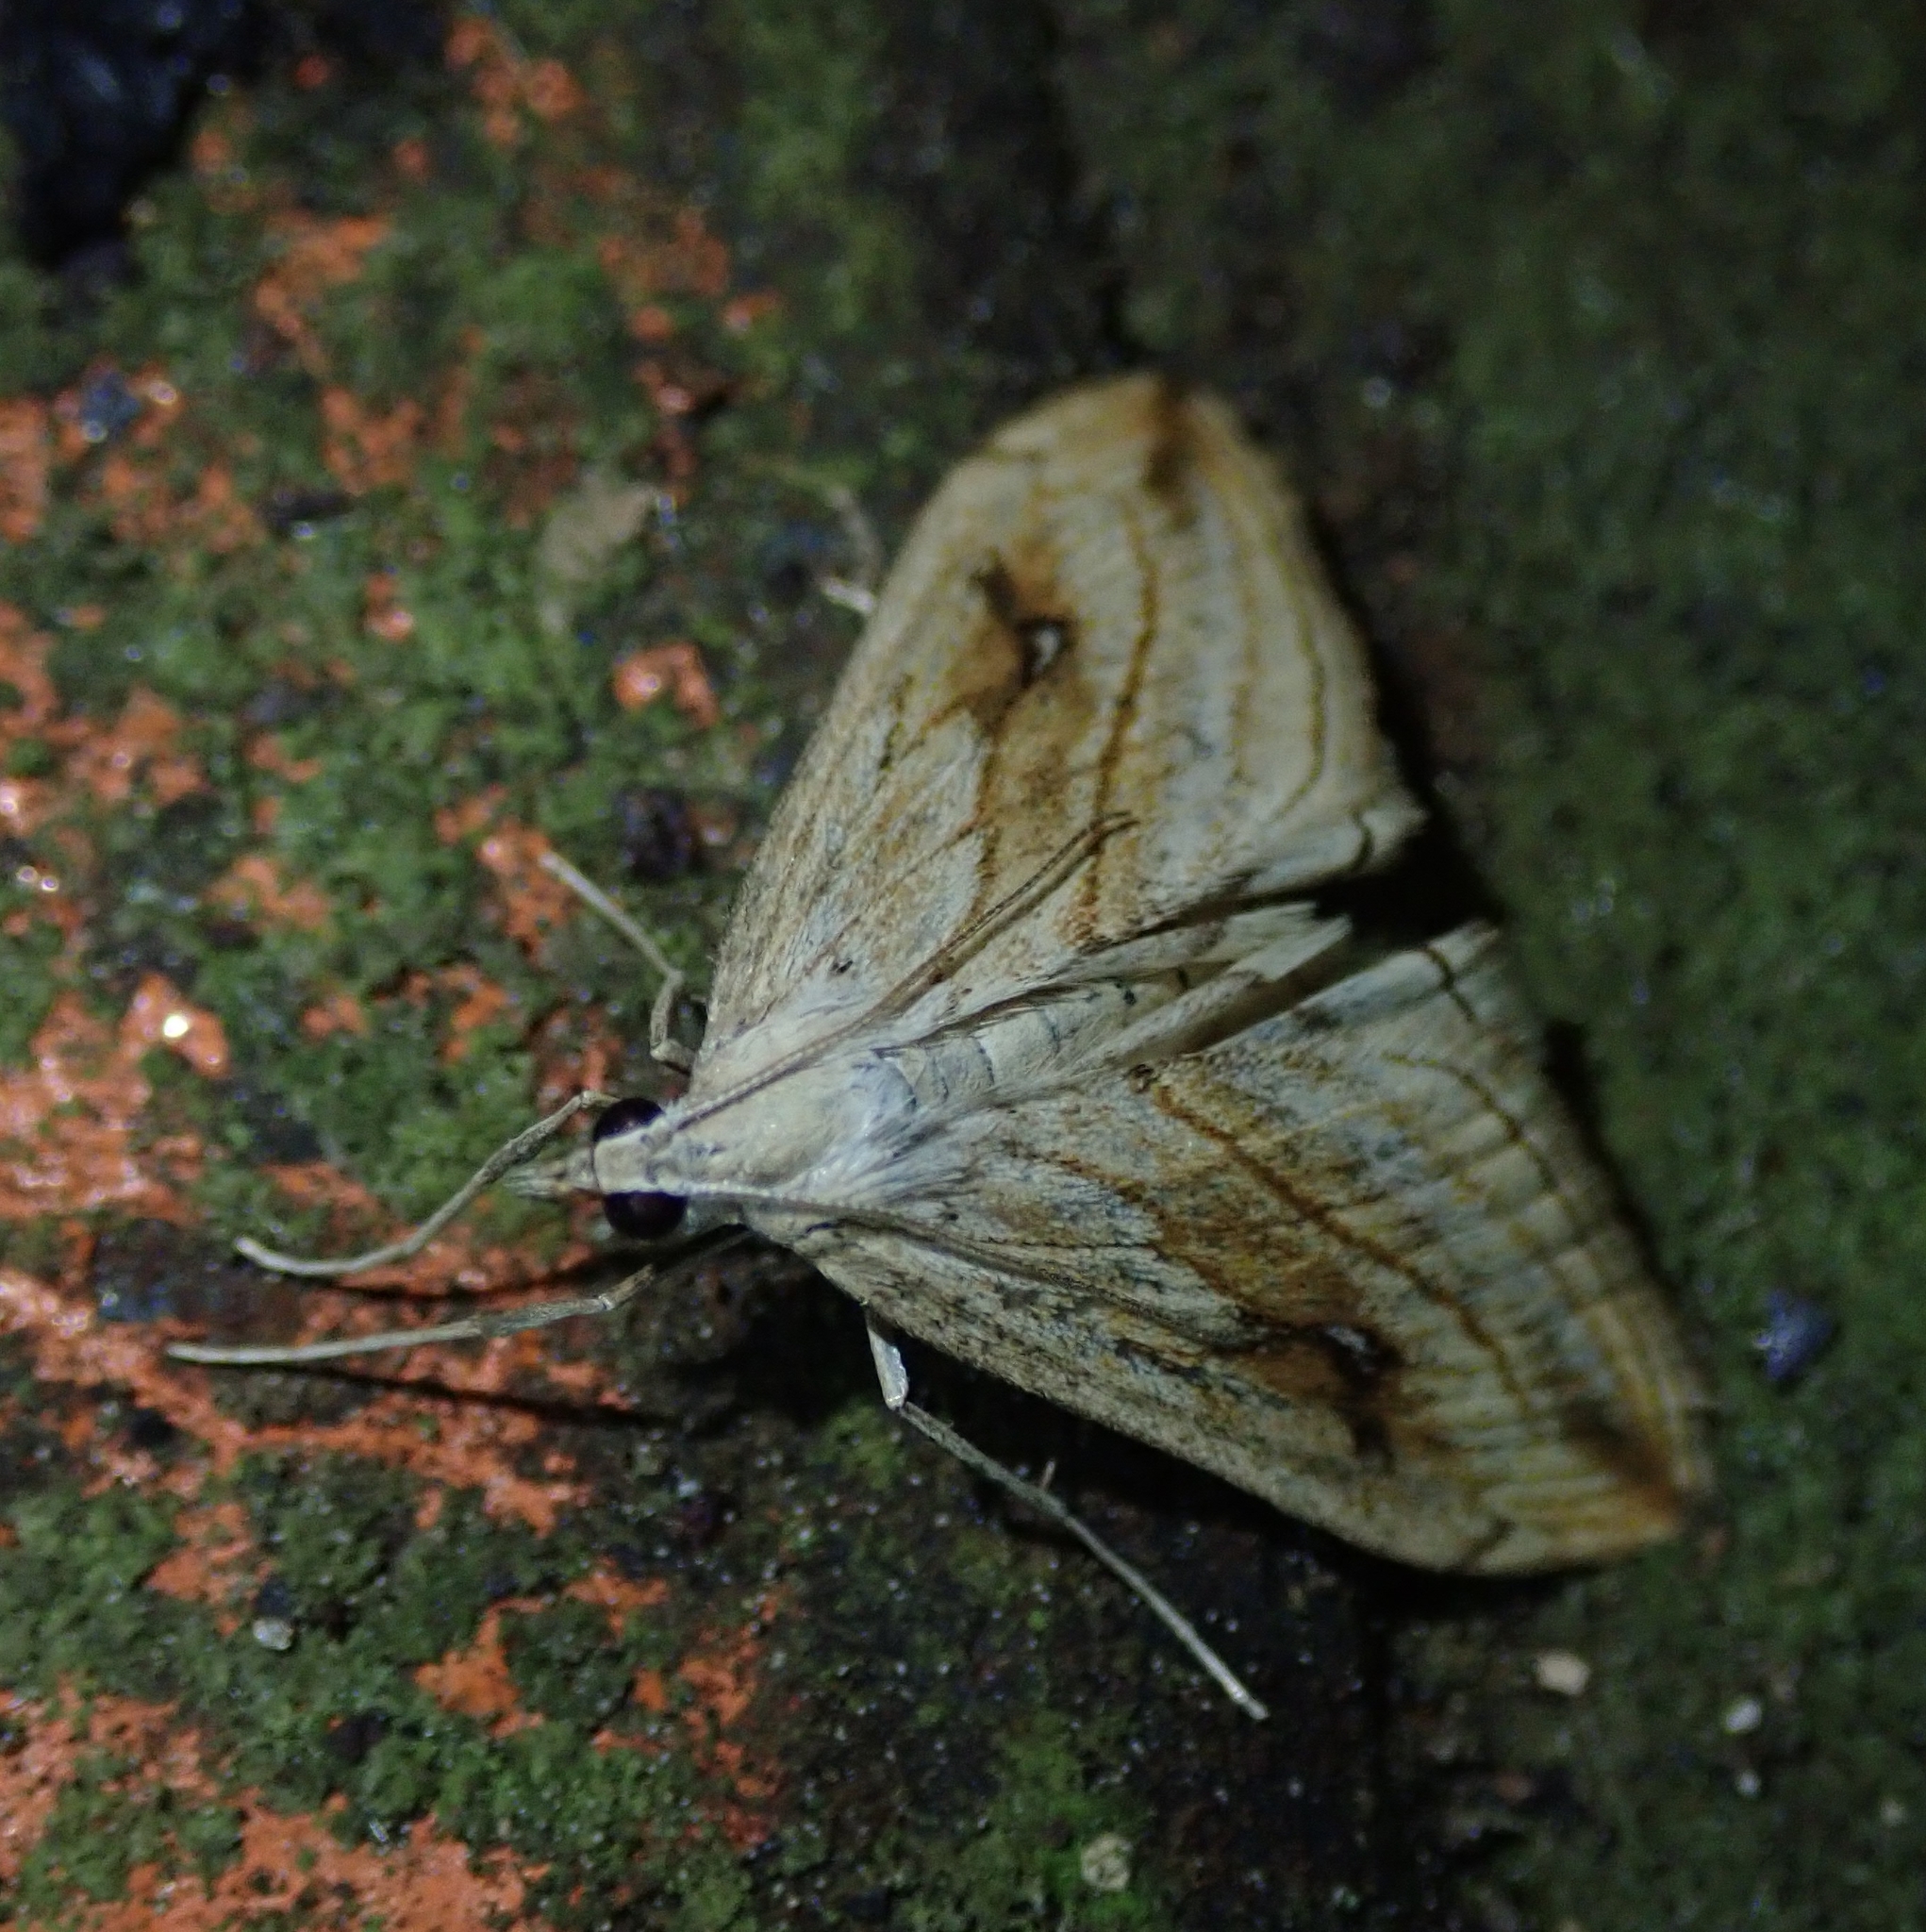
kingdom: Animalia
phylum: Arthropoda
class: Insecta
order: Lepidoptera
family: Crambidae
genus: Evergestis
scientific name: Evergestis forficalis
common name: Garden pebble
